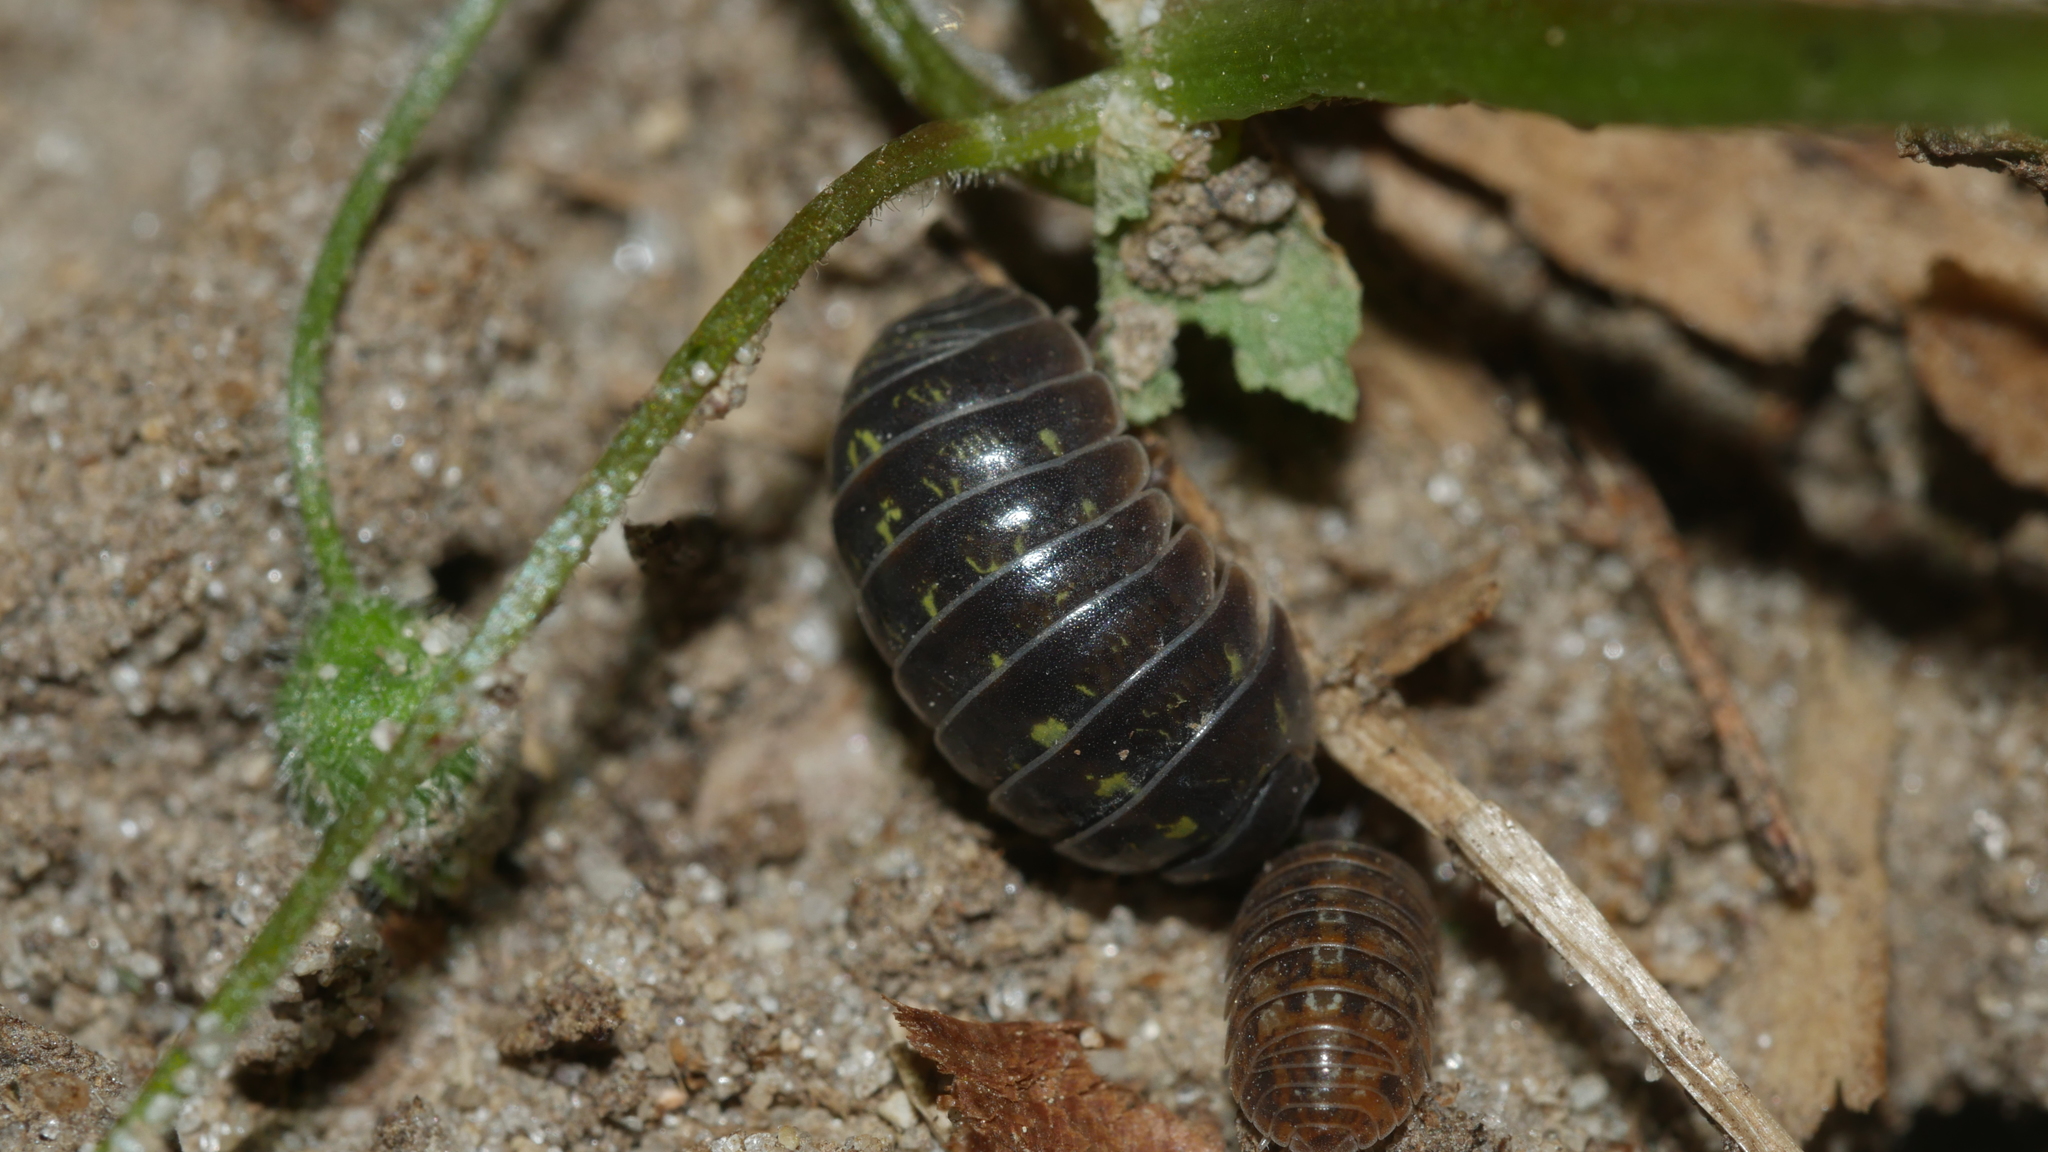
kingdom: Animalia
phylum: Arthropoda
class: Malacostraca
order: Isopoda
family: Armadillidiidae
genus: Armadillidium
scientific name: Armadillidium vulgare
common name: Common pill woodlouse
